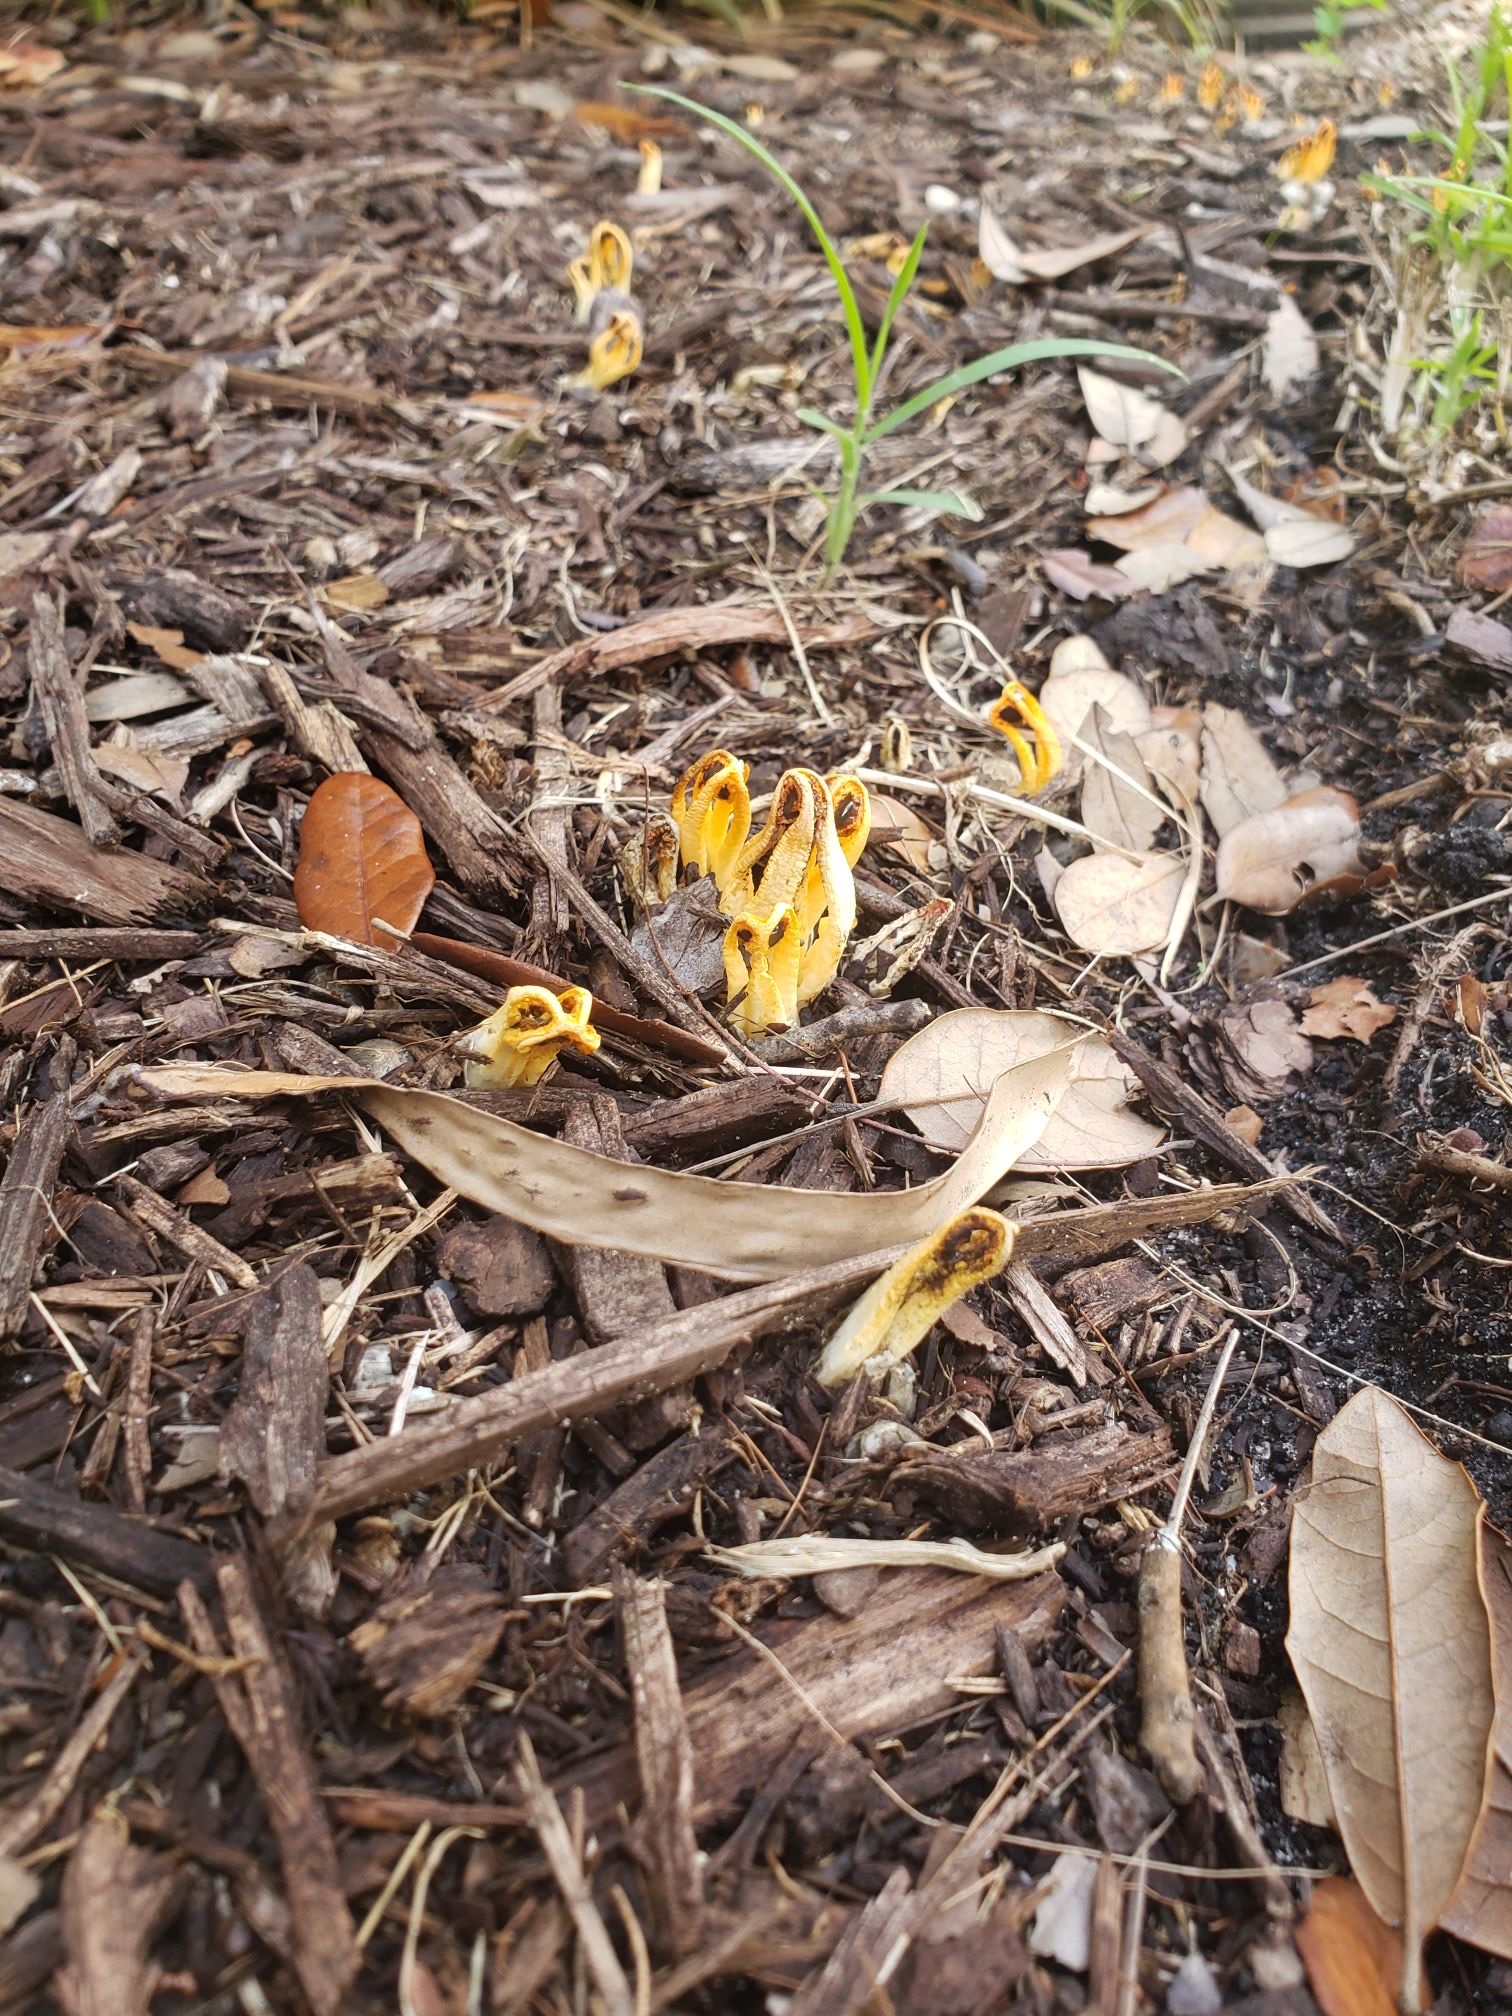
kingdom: Fungi
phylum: Basidiomycota
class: Agaricomycetes
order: Phallales
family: Phallaceae
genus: Laternea
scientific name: Laternea dringii
